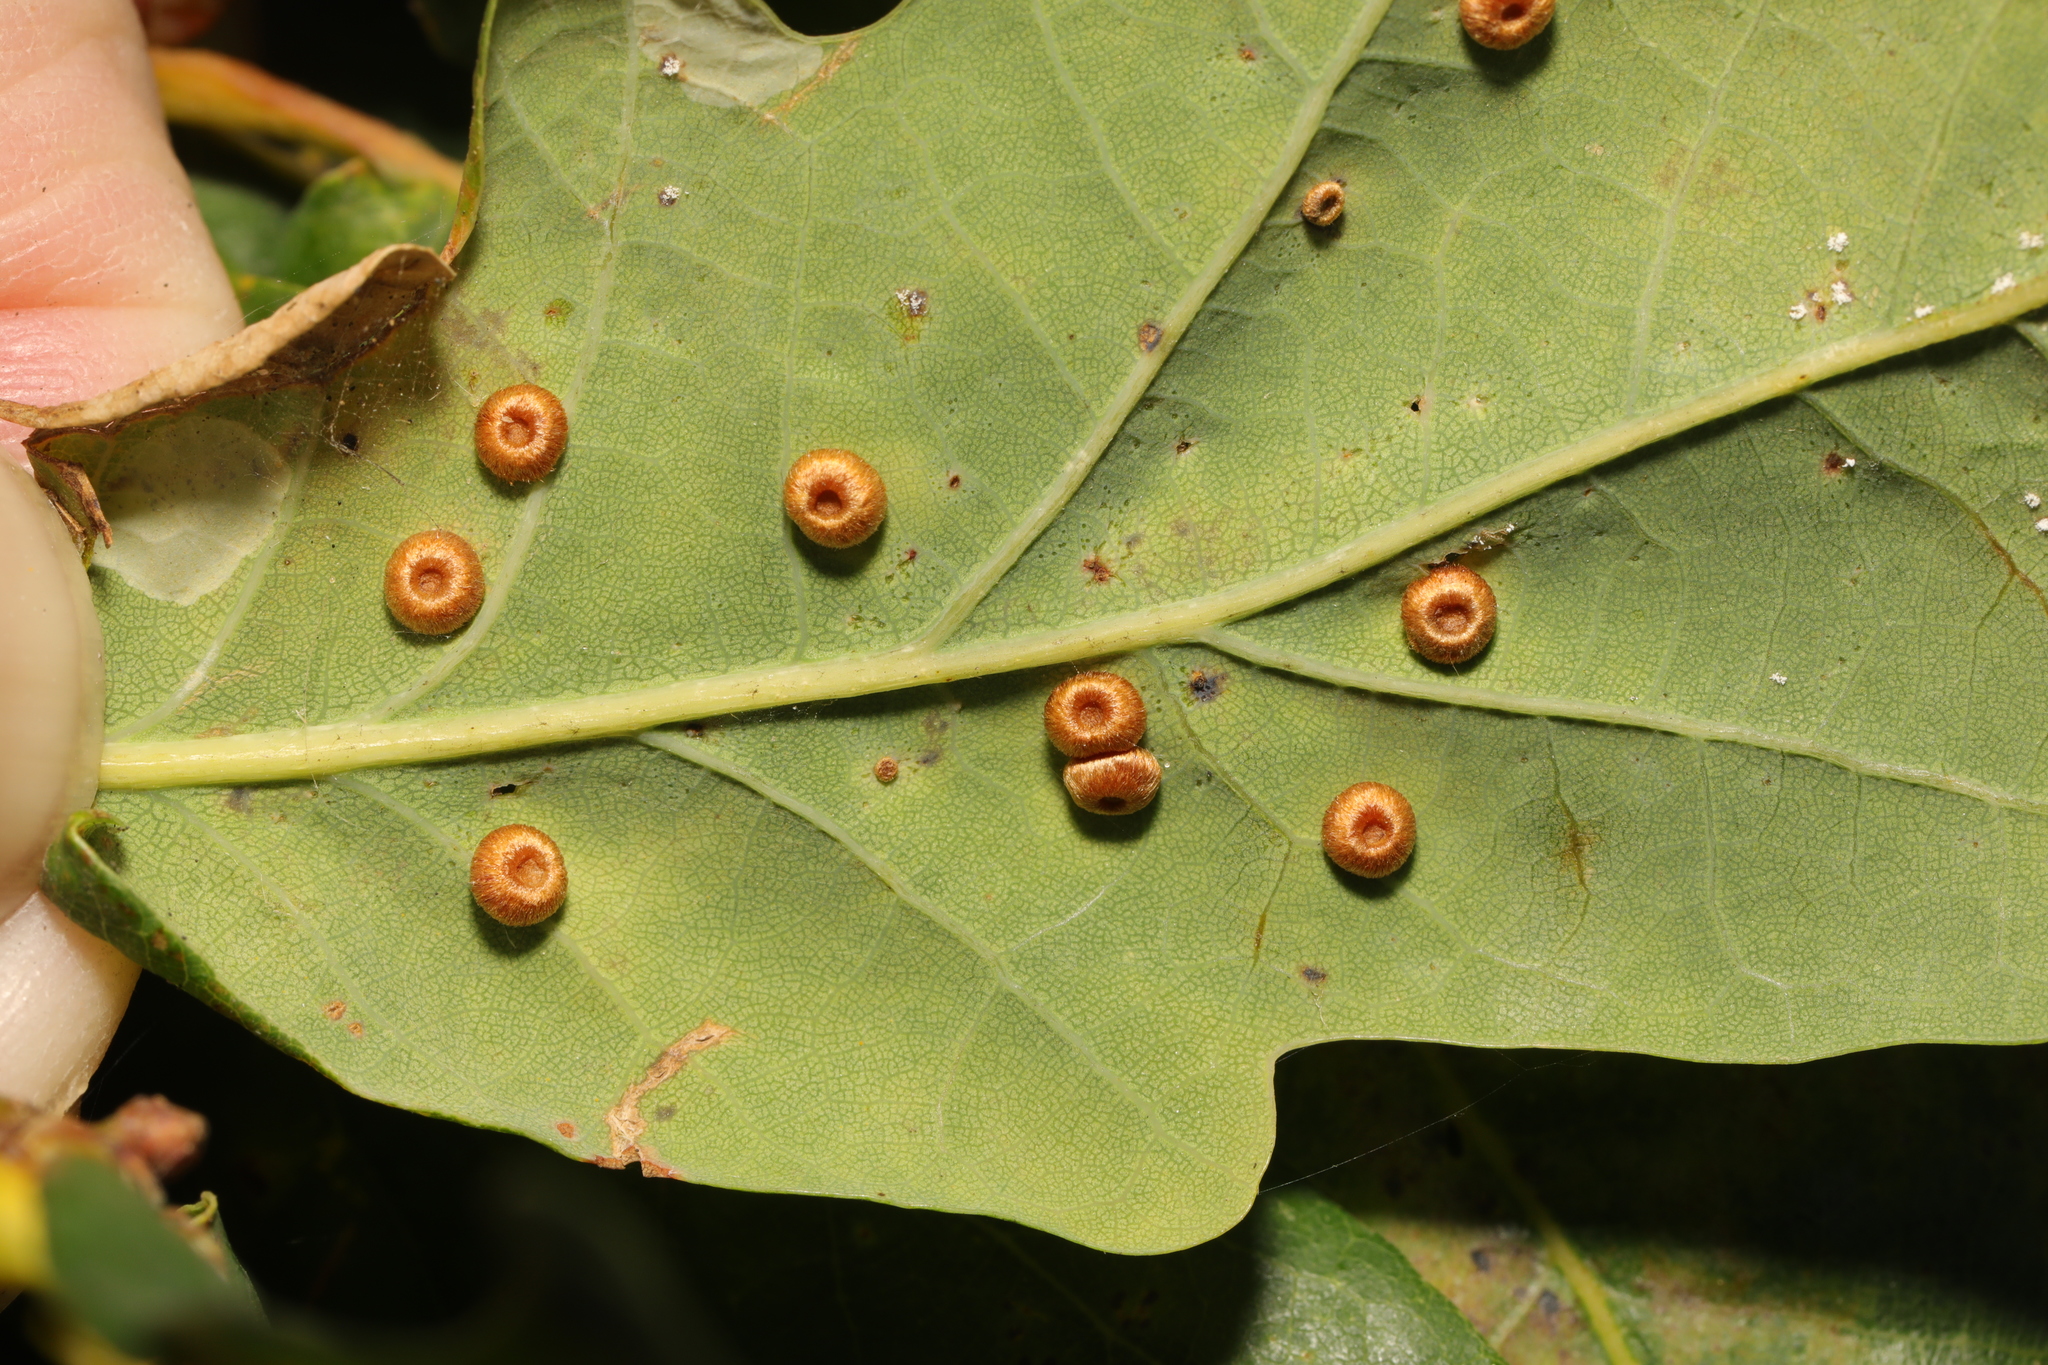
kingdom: Animalia
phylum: Arthropoda
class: Insecta
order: Hymenoptera
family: Cynipidae
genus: Neuroterus
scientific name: Neuroterus numismalis
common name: Silk-button spangle gall
